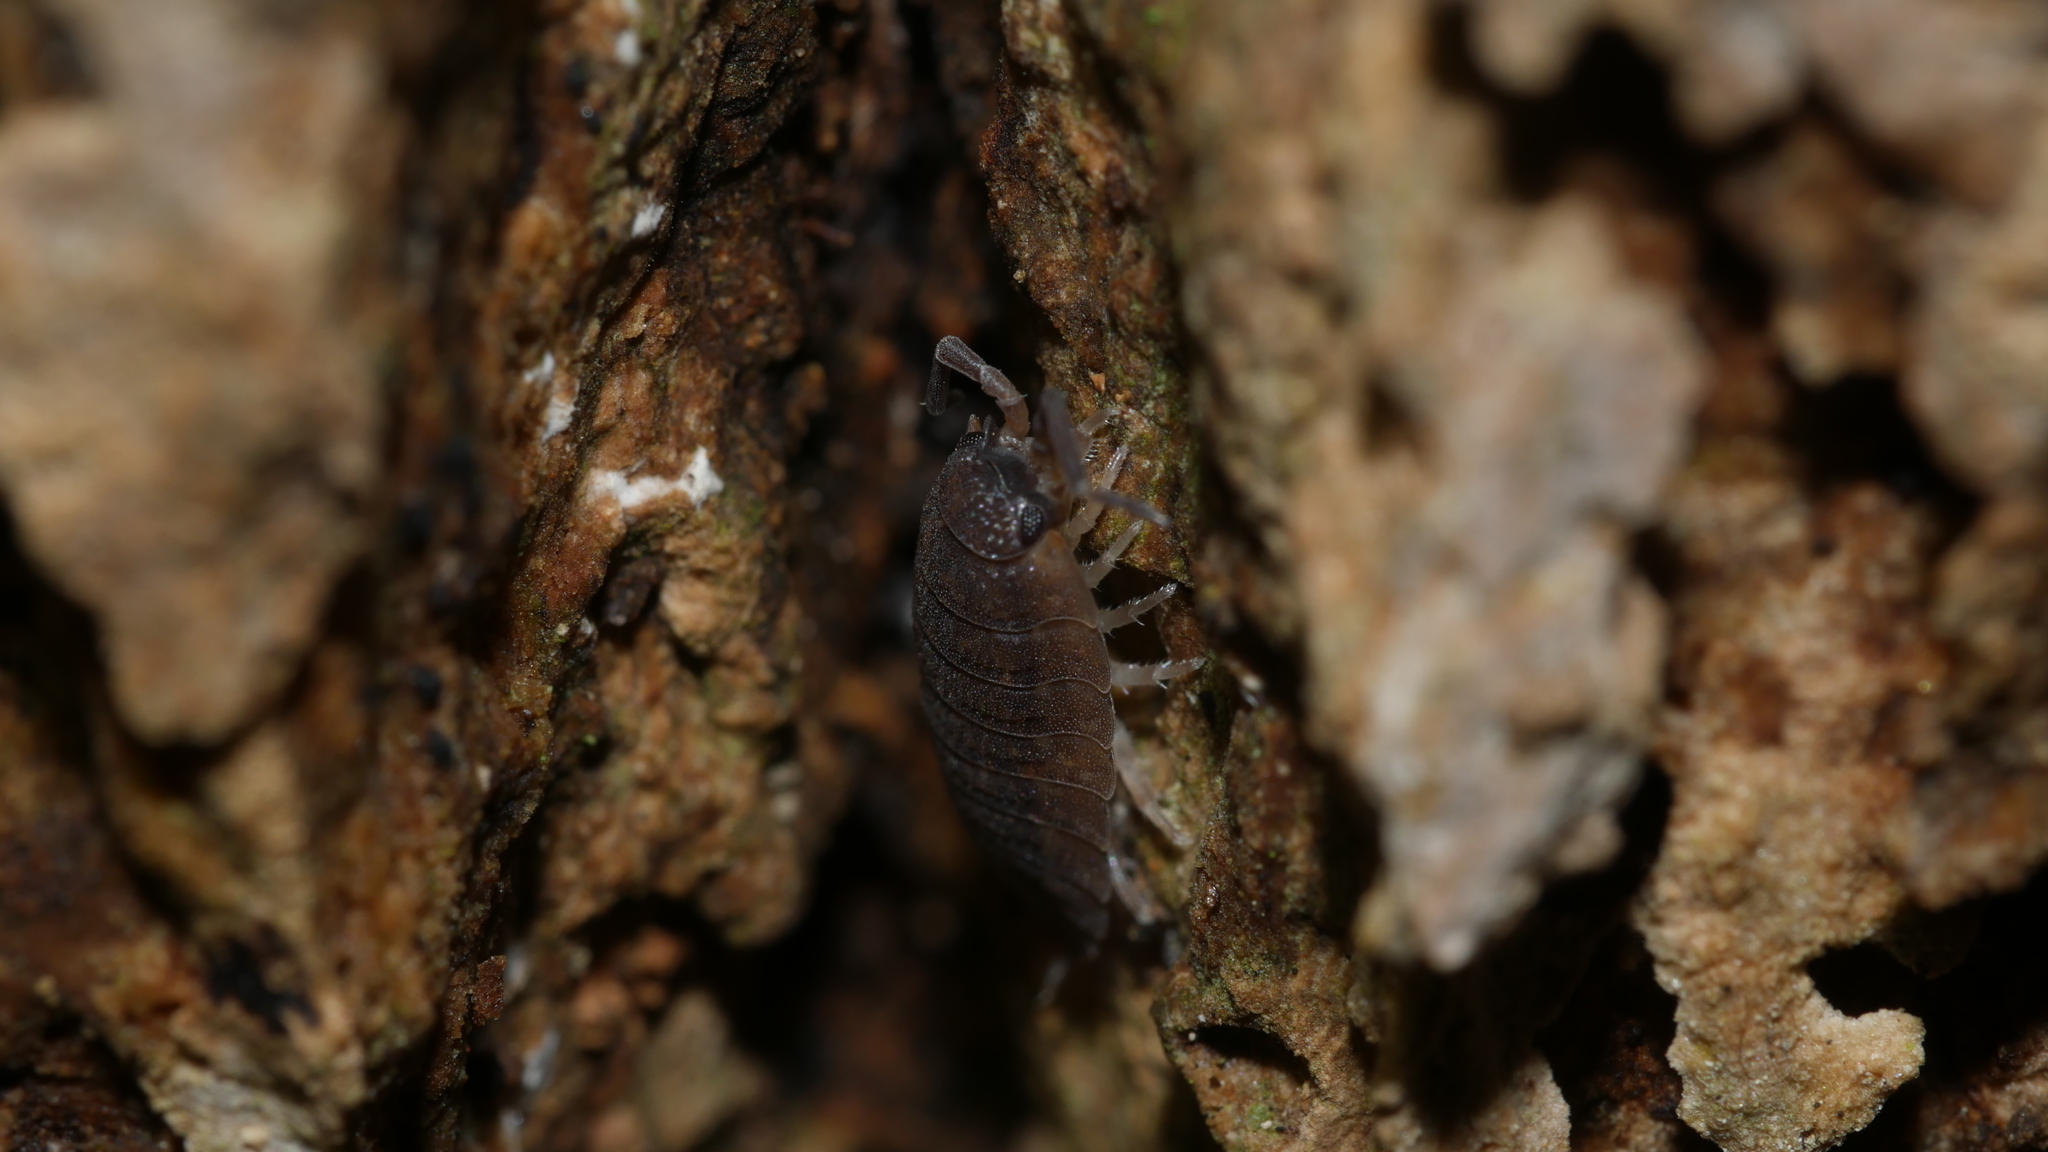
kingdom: Animalia
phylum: Arthropoda
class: Malacostraca
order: Isopoda
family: Porcellionidae
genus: Porcellio
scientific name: Porcellio scaber
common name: Common rough woodlouse
